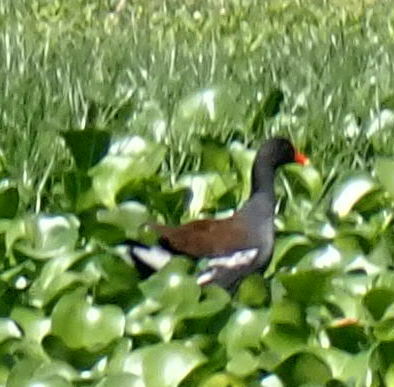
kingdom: Animalia
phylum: Chordata
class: Aves
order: Gruiformes
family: Rallidae
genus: Gallinula
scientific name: Gallinula chloropus
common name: Common moorhen
